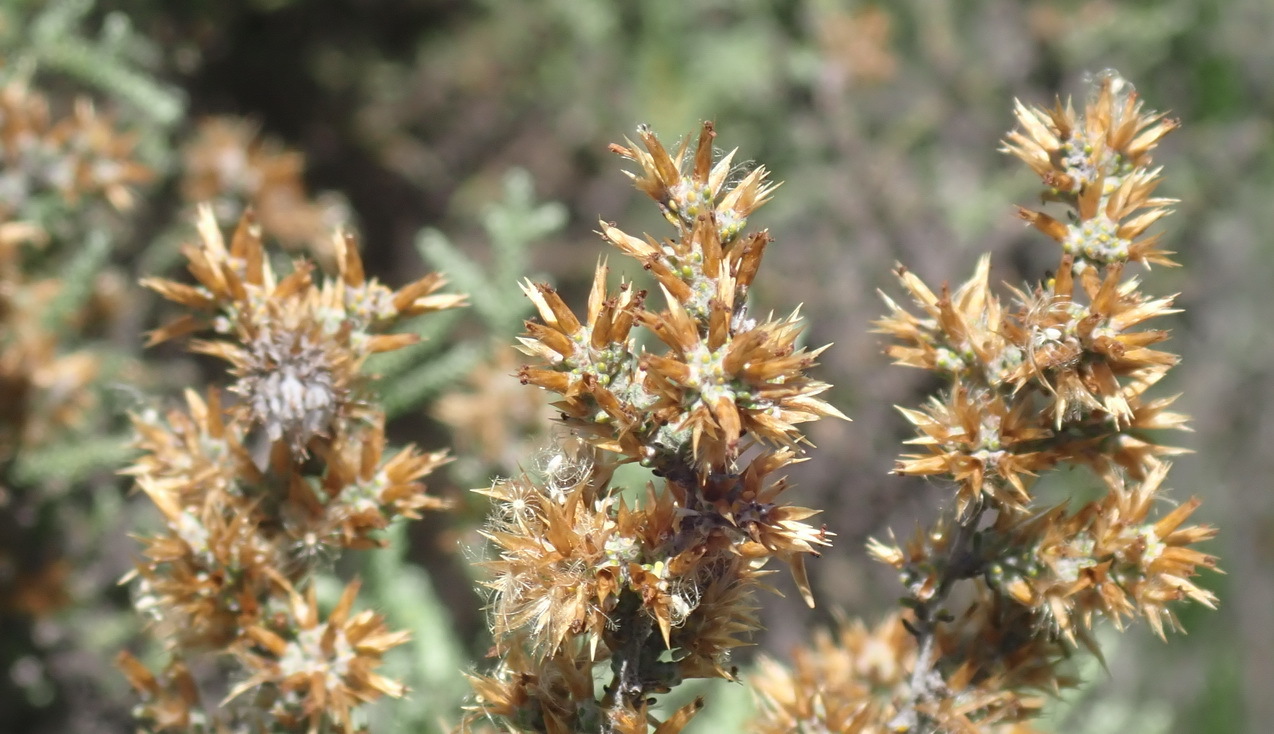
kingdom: Plantae
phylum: Tracheophyta
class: Magnoliopsida
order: Asterales
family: Asteraceae
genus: Seriphium
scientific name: Seriphium cinereum
